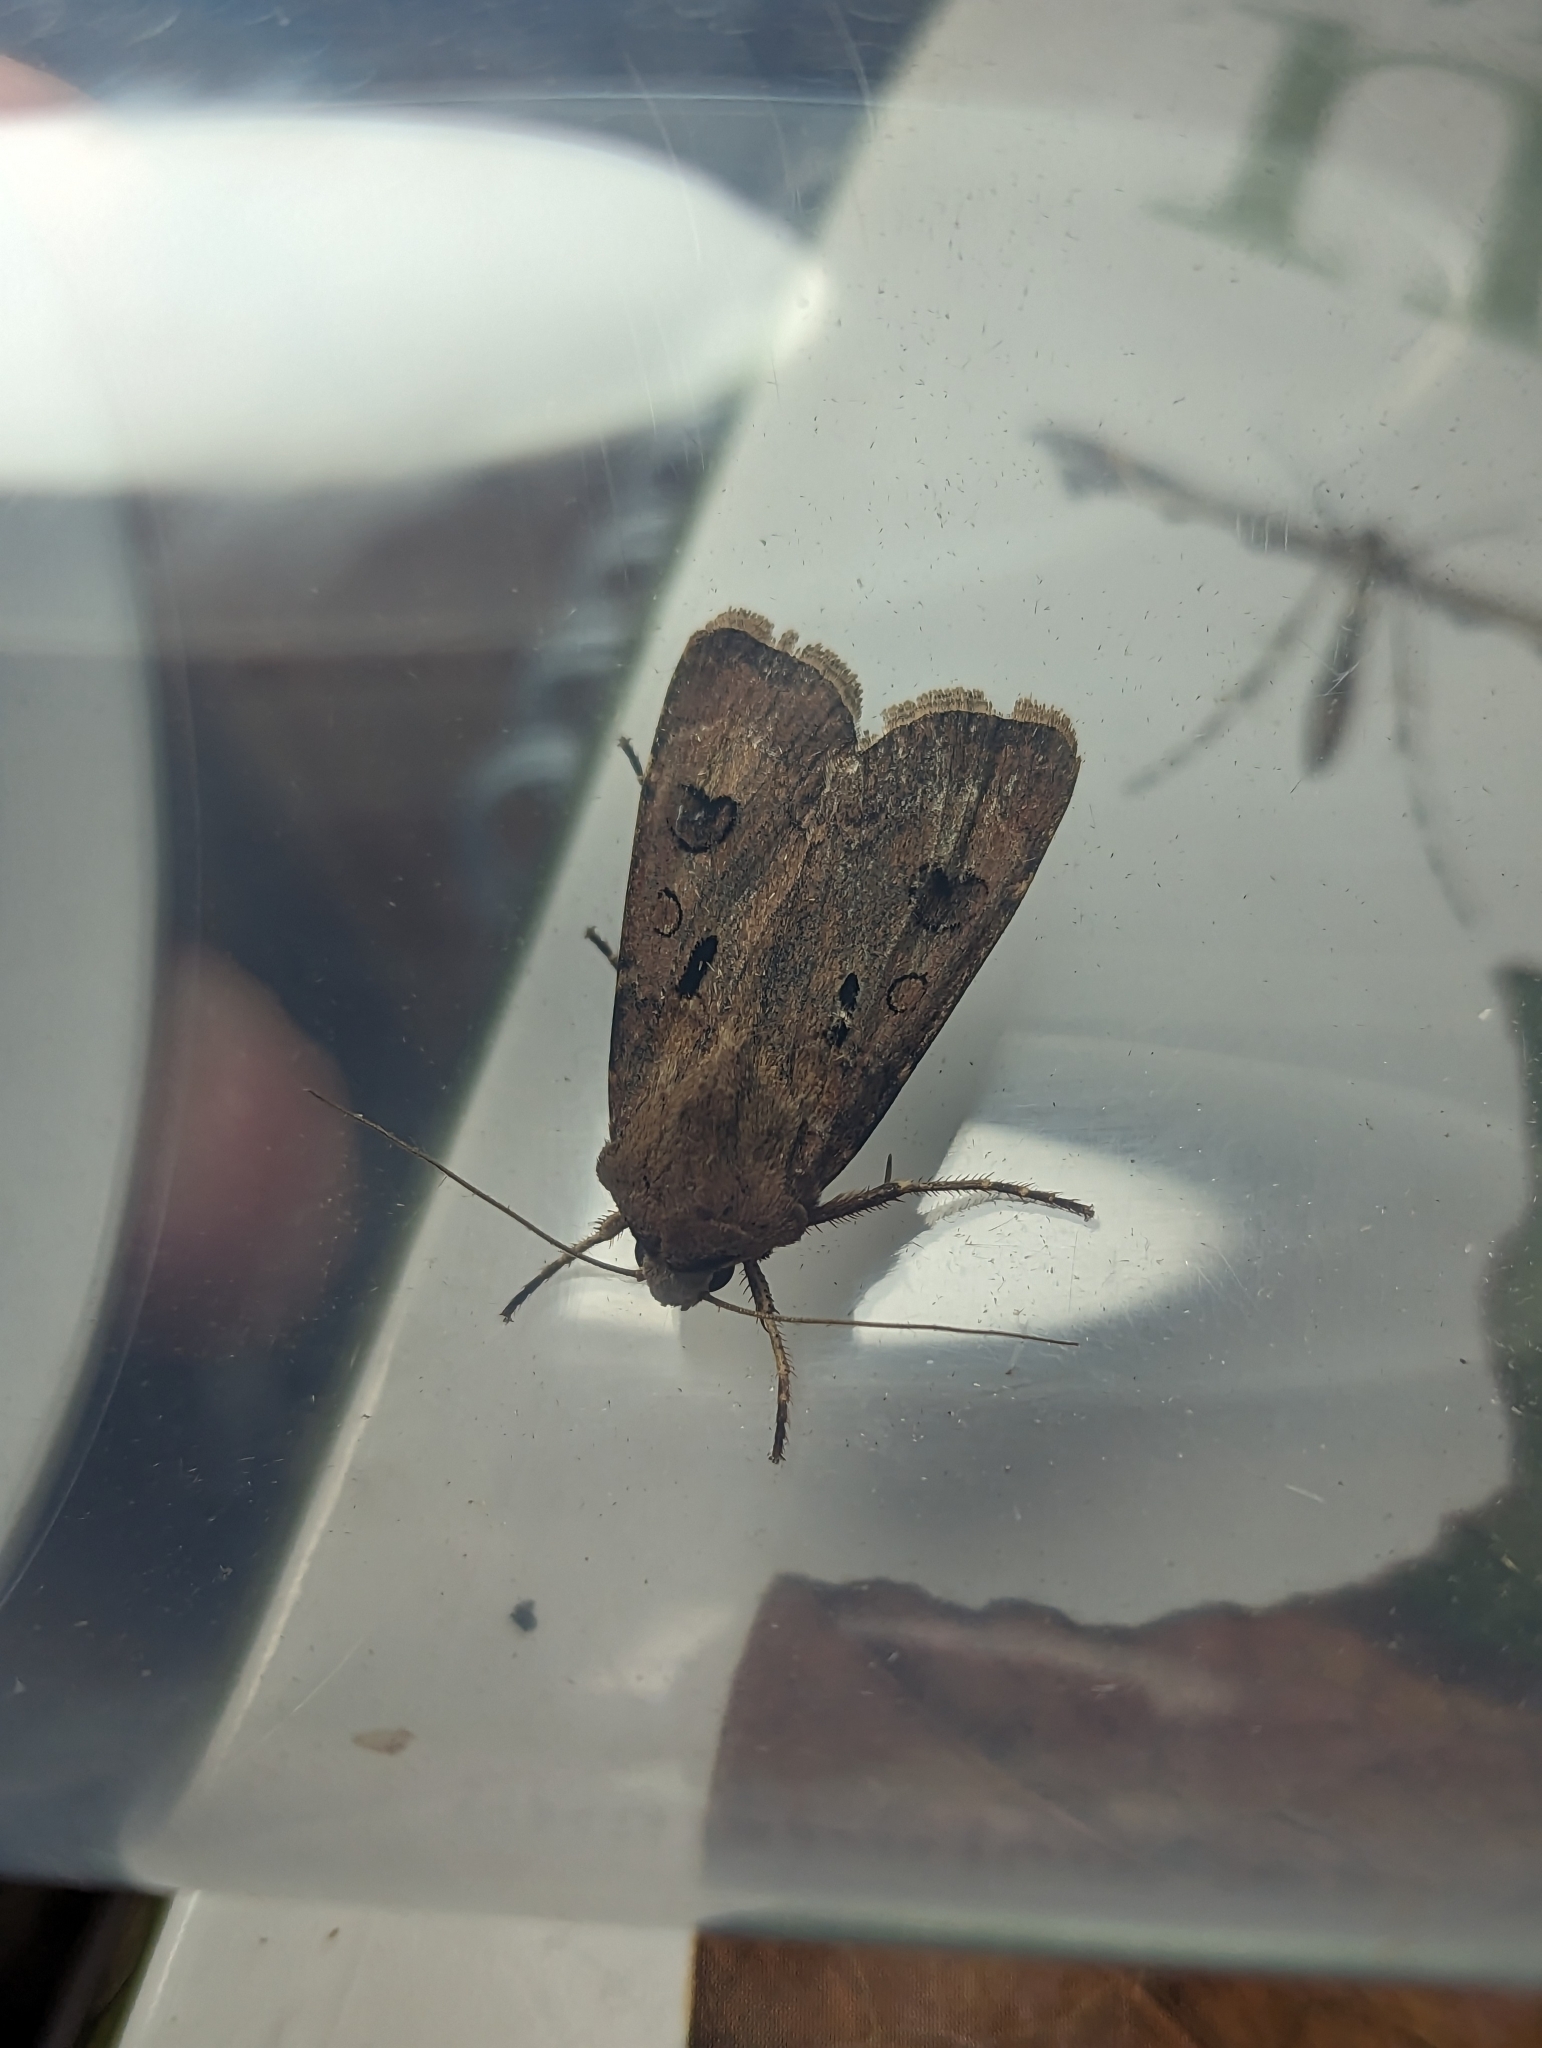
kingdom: Animalia
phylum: Arthropoda
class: Insecta
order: Lepidoptera
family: Noctuidae
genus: Agrotis
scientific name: Agrotis exclamationis
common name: Heart and dart
